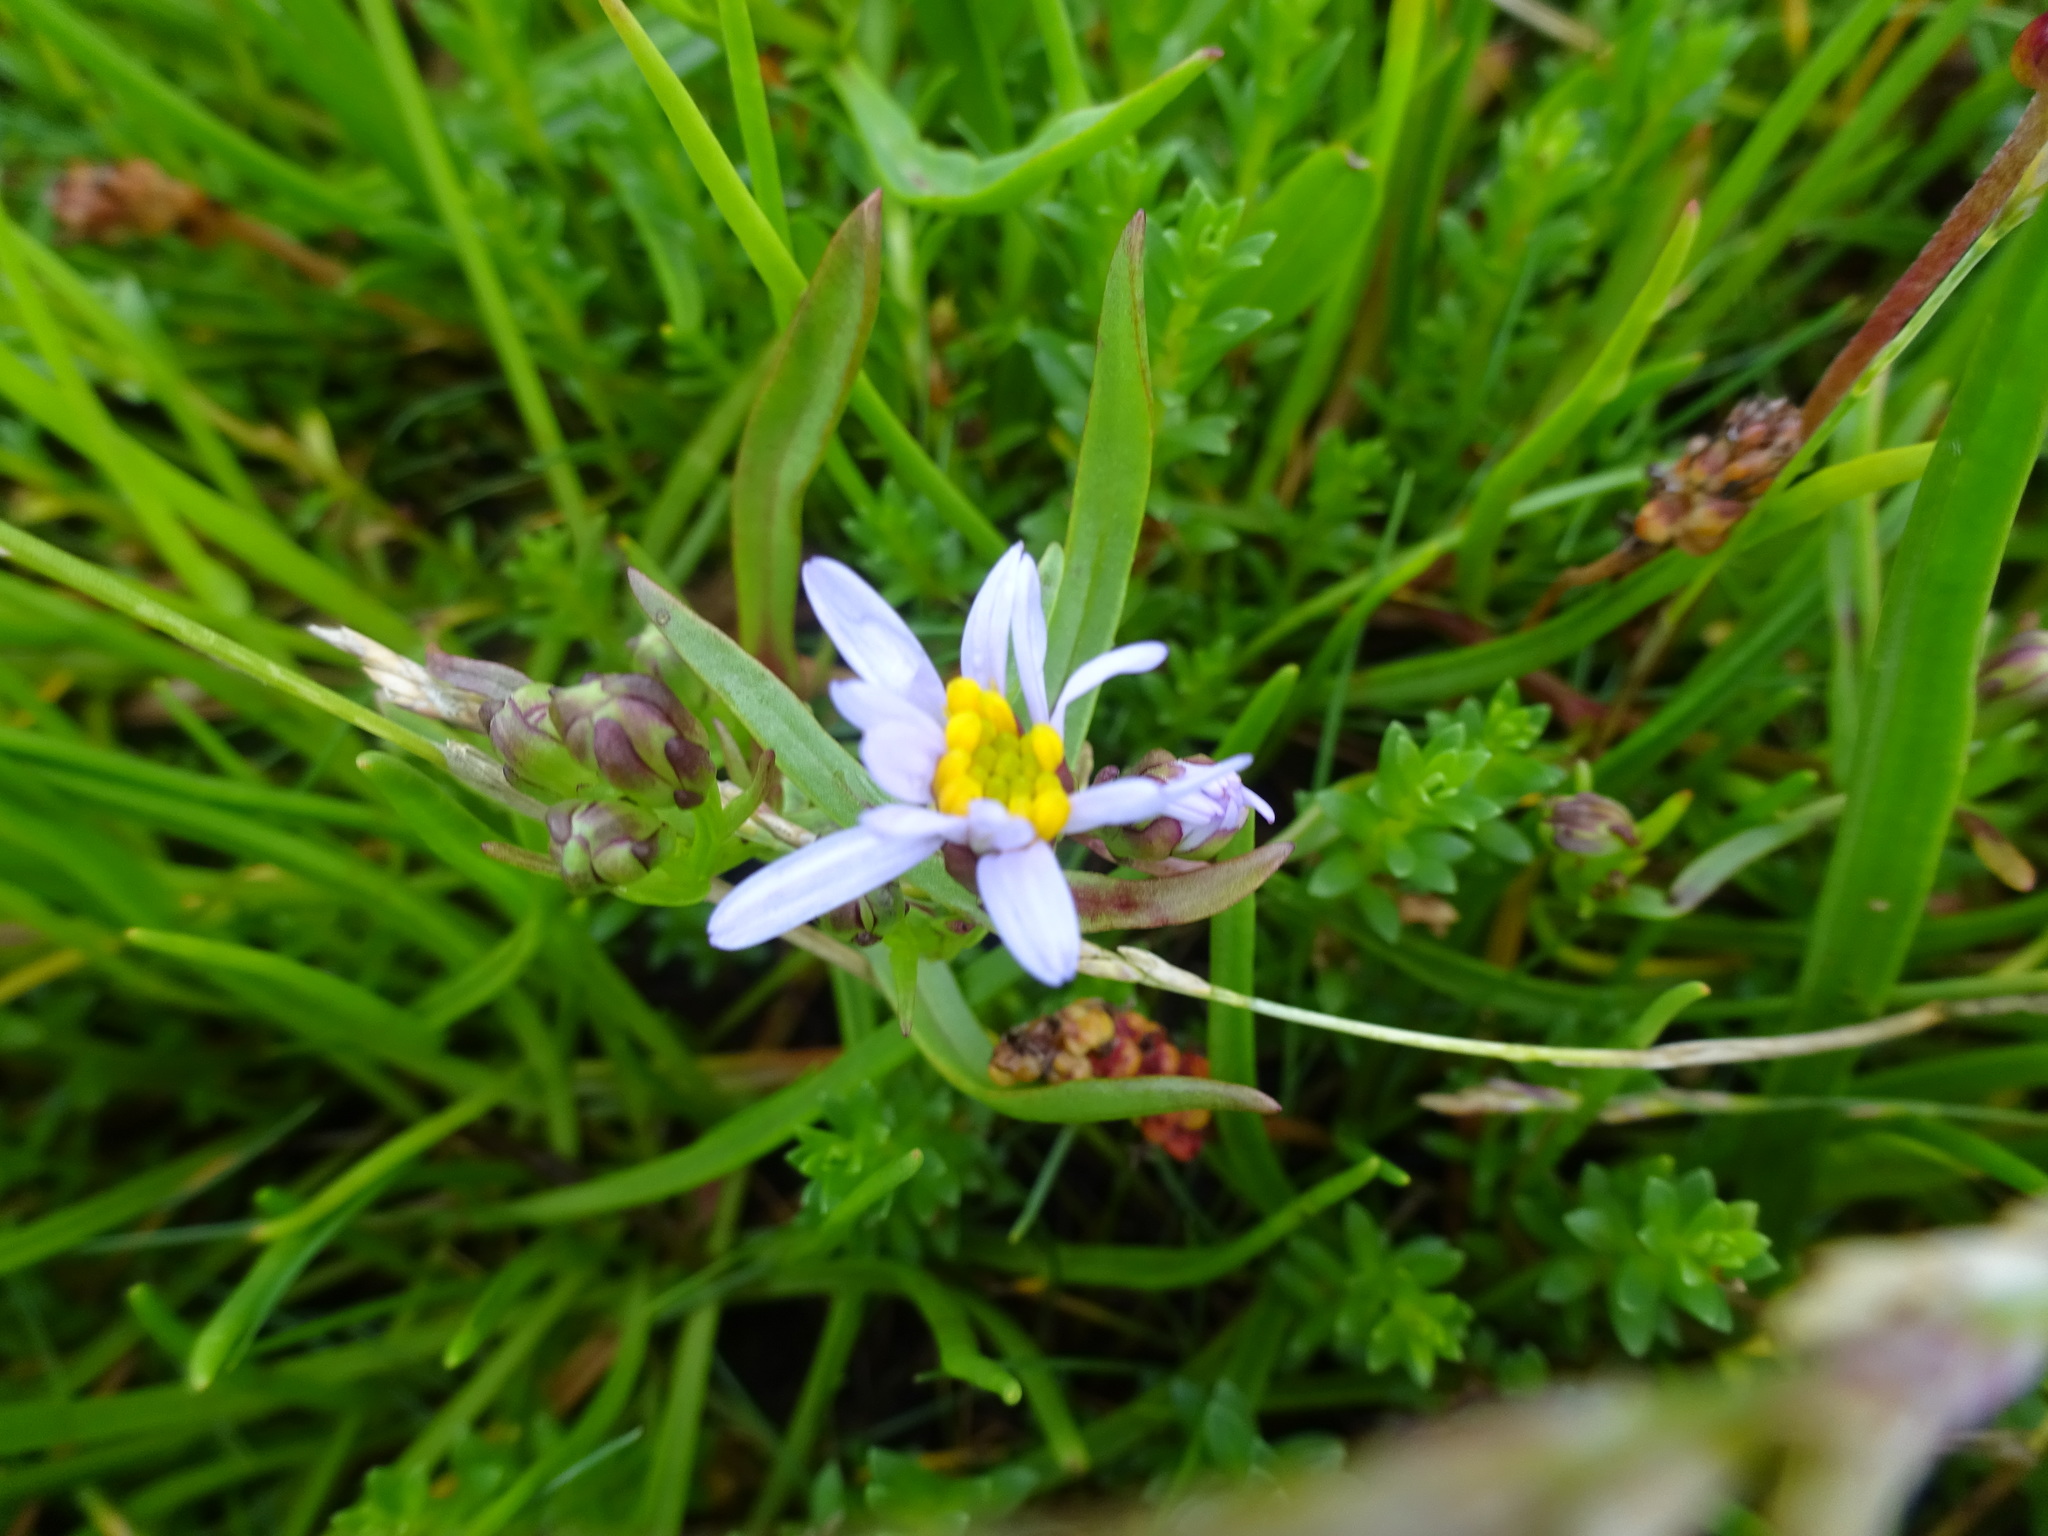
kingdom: Plantae
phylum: Tracheophyta
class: Magnoliopsida
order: Asterales
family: Asteraceae
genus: Tripolium
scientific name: Tripolium pannonicum
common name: Sea aster
